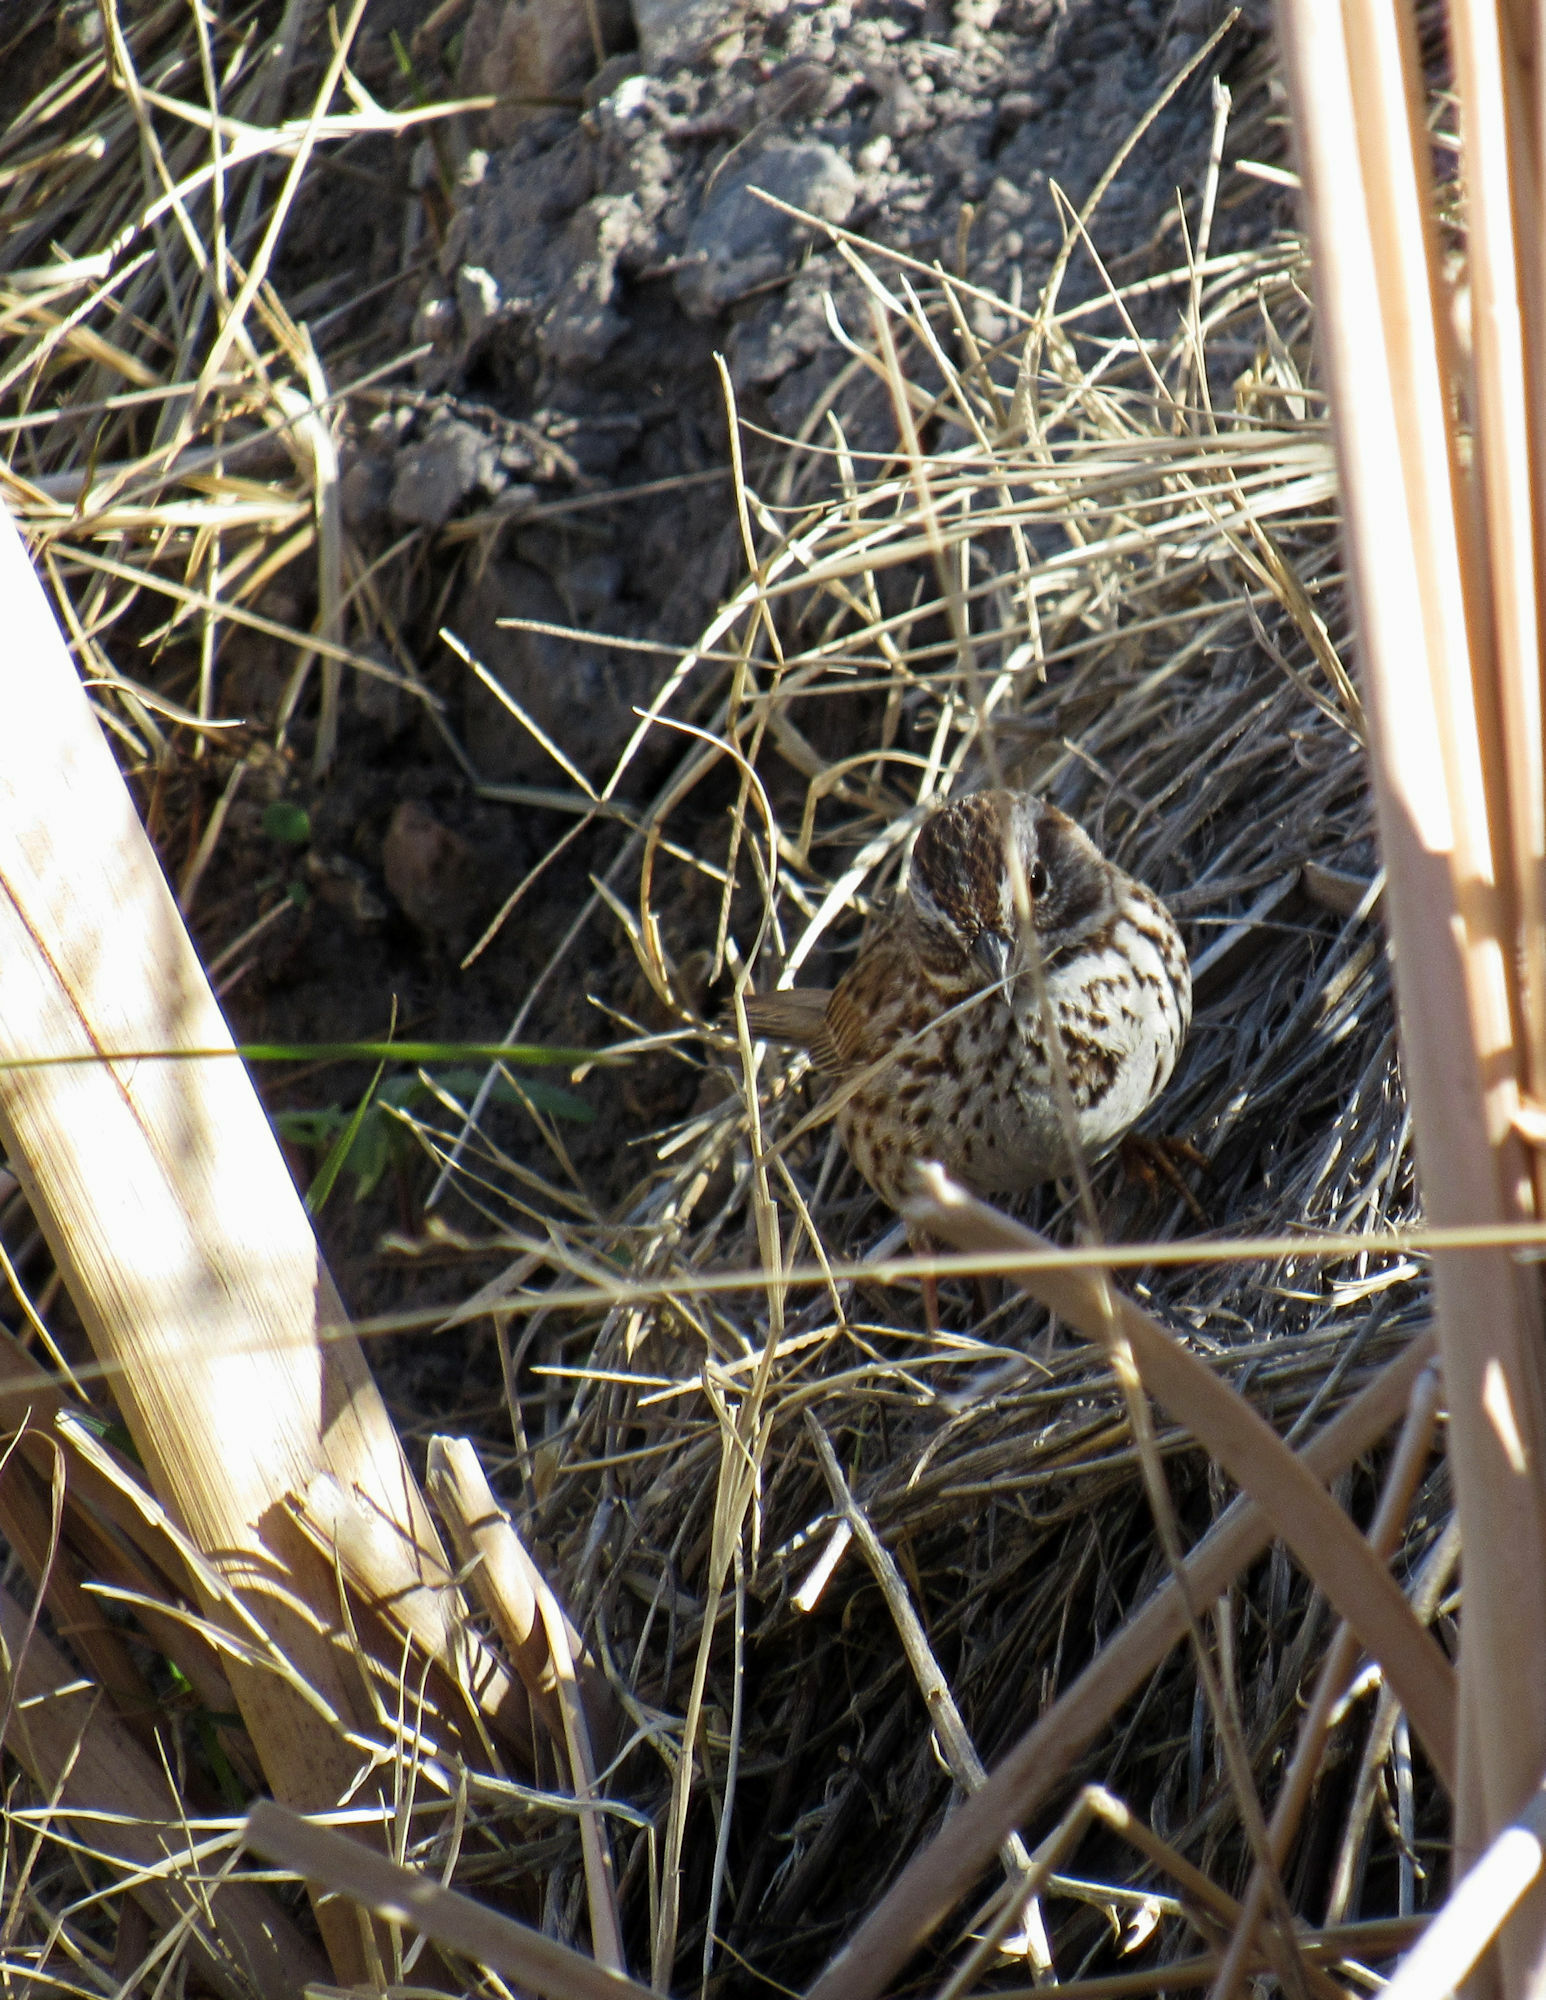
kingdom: Animalia
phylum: Chordata
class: Aves
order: Passeriformes
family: Passerellidae
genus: Melospiza
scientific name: Melospiza melodia
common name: Song sparrow
